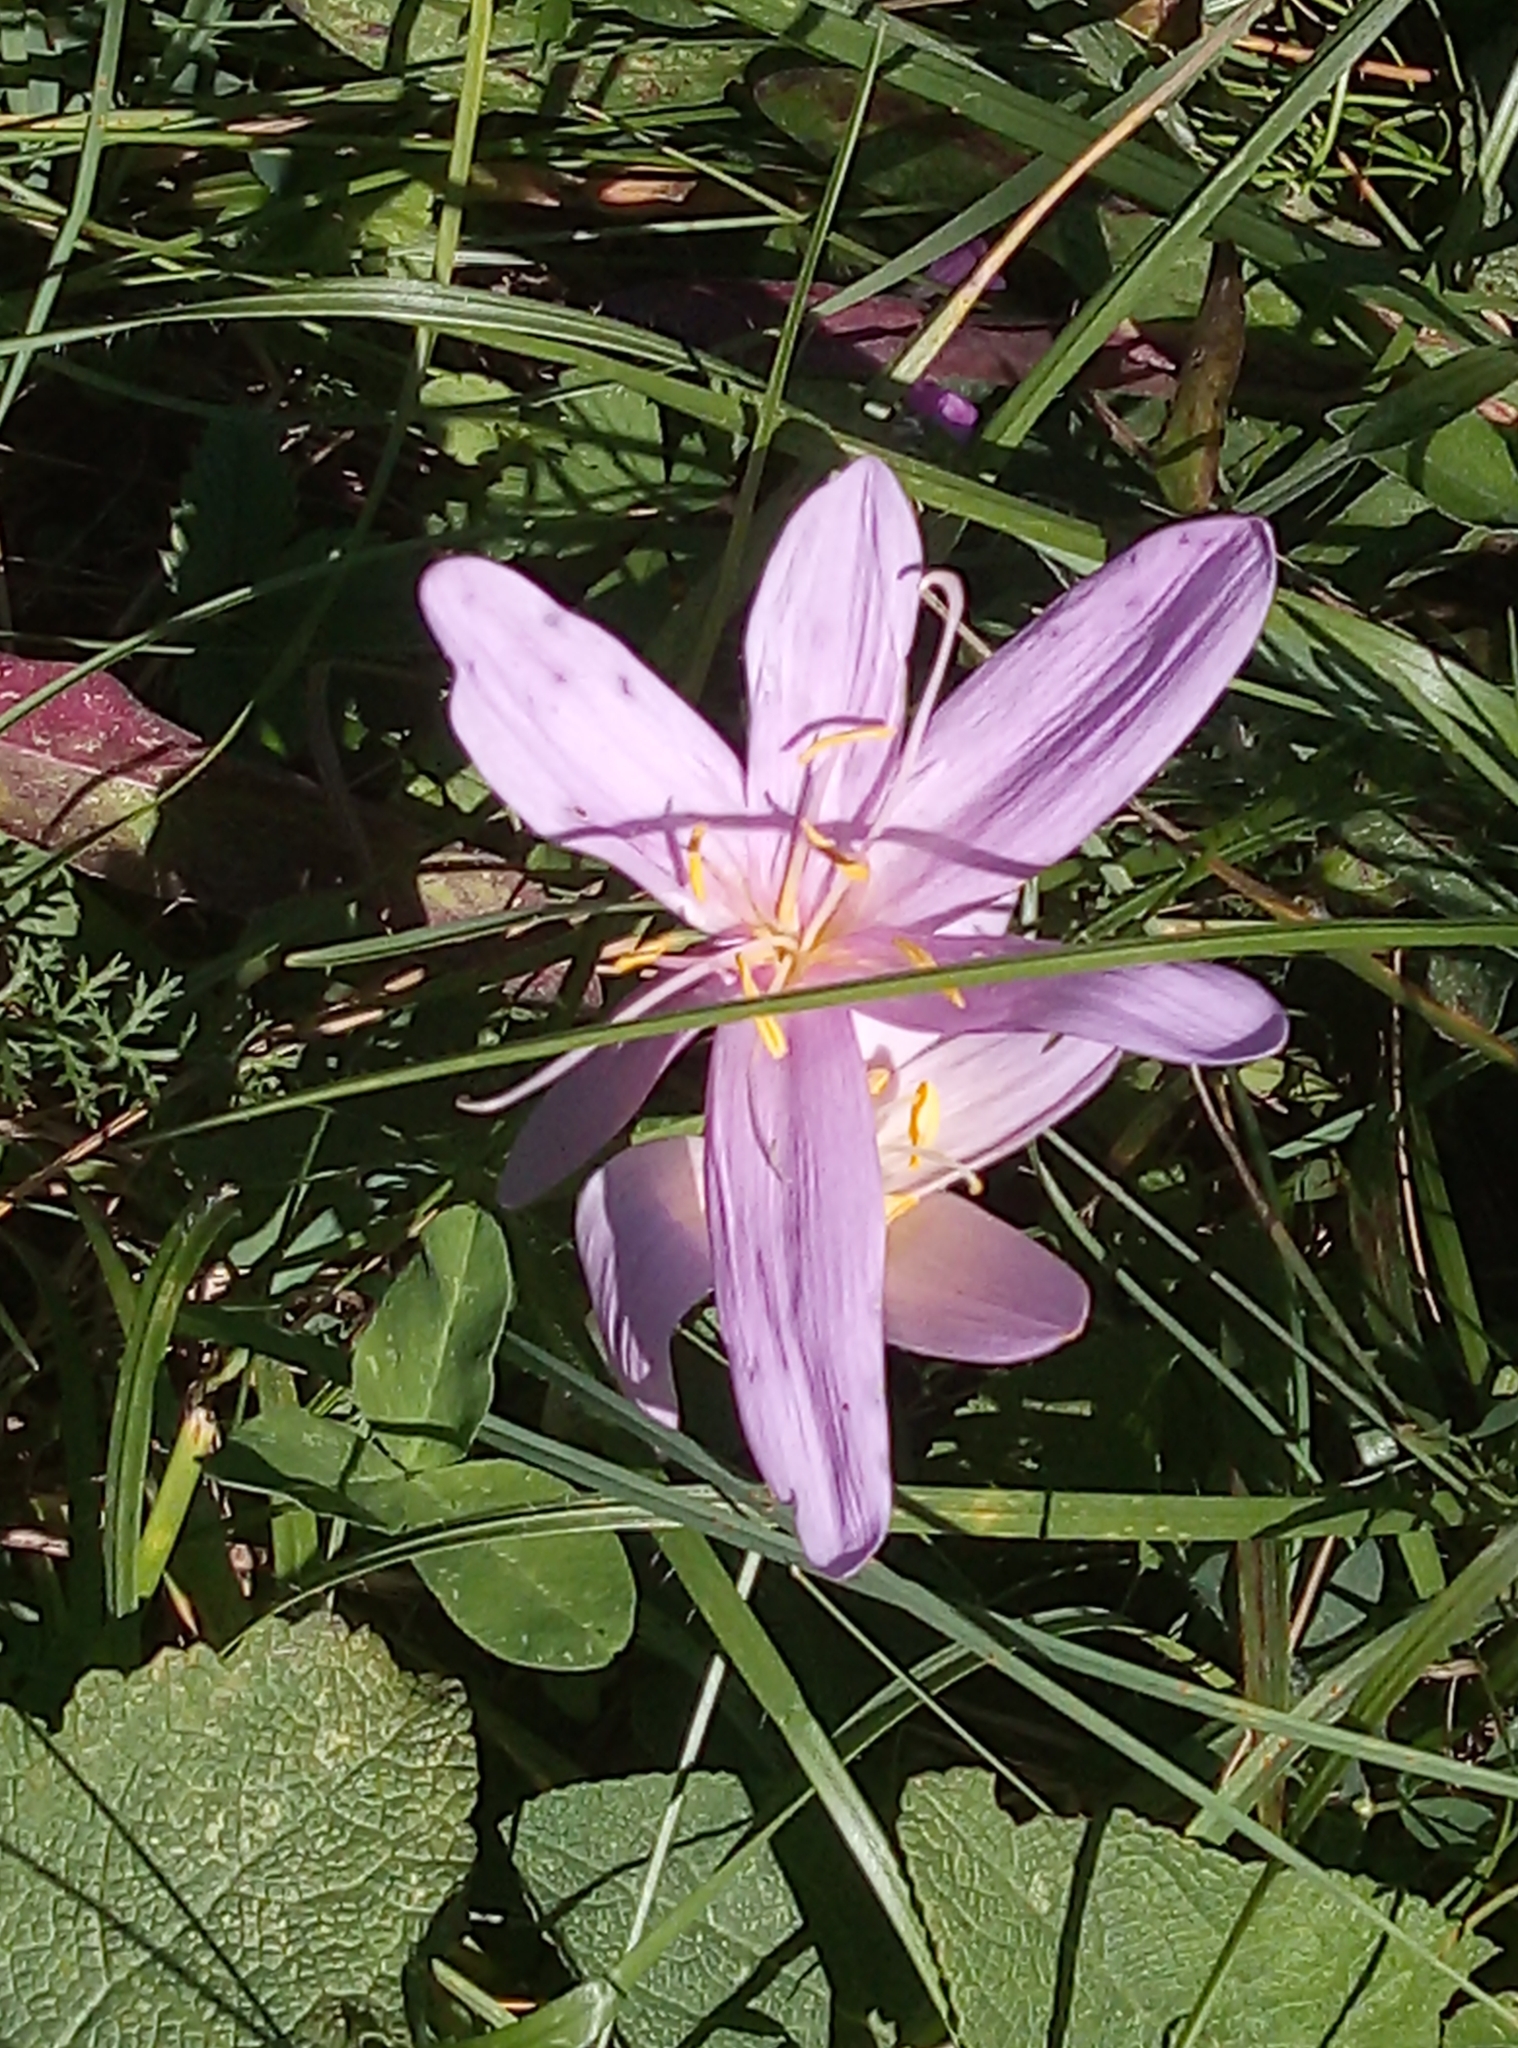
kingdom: Plantae
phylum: Tracheophyta
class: Liliopsida
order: Liliales
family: Colchicaceae
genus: Colchicum
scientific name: Colchicum autumnale
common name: Autumn crocus
